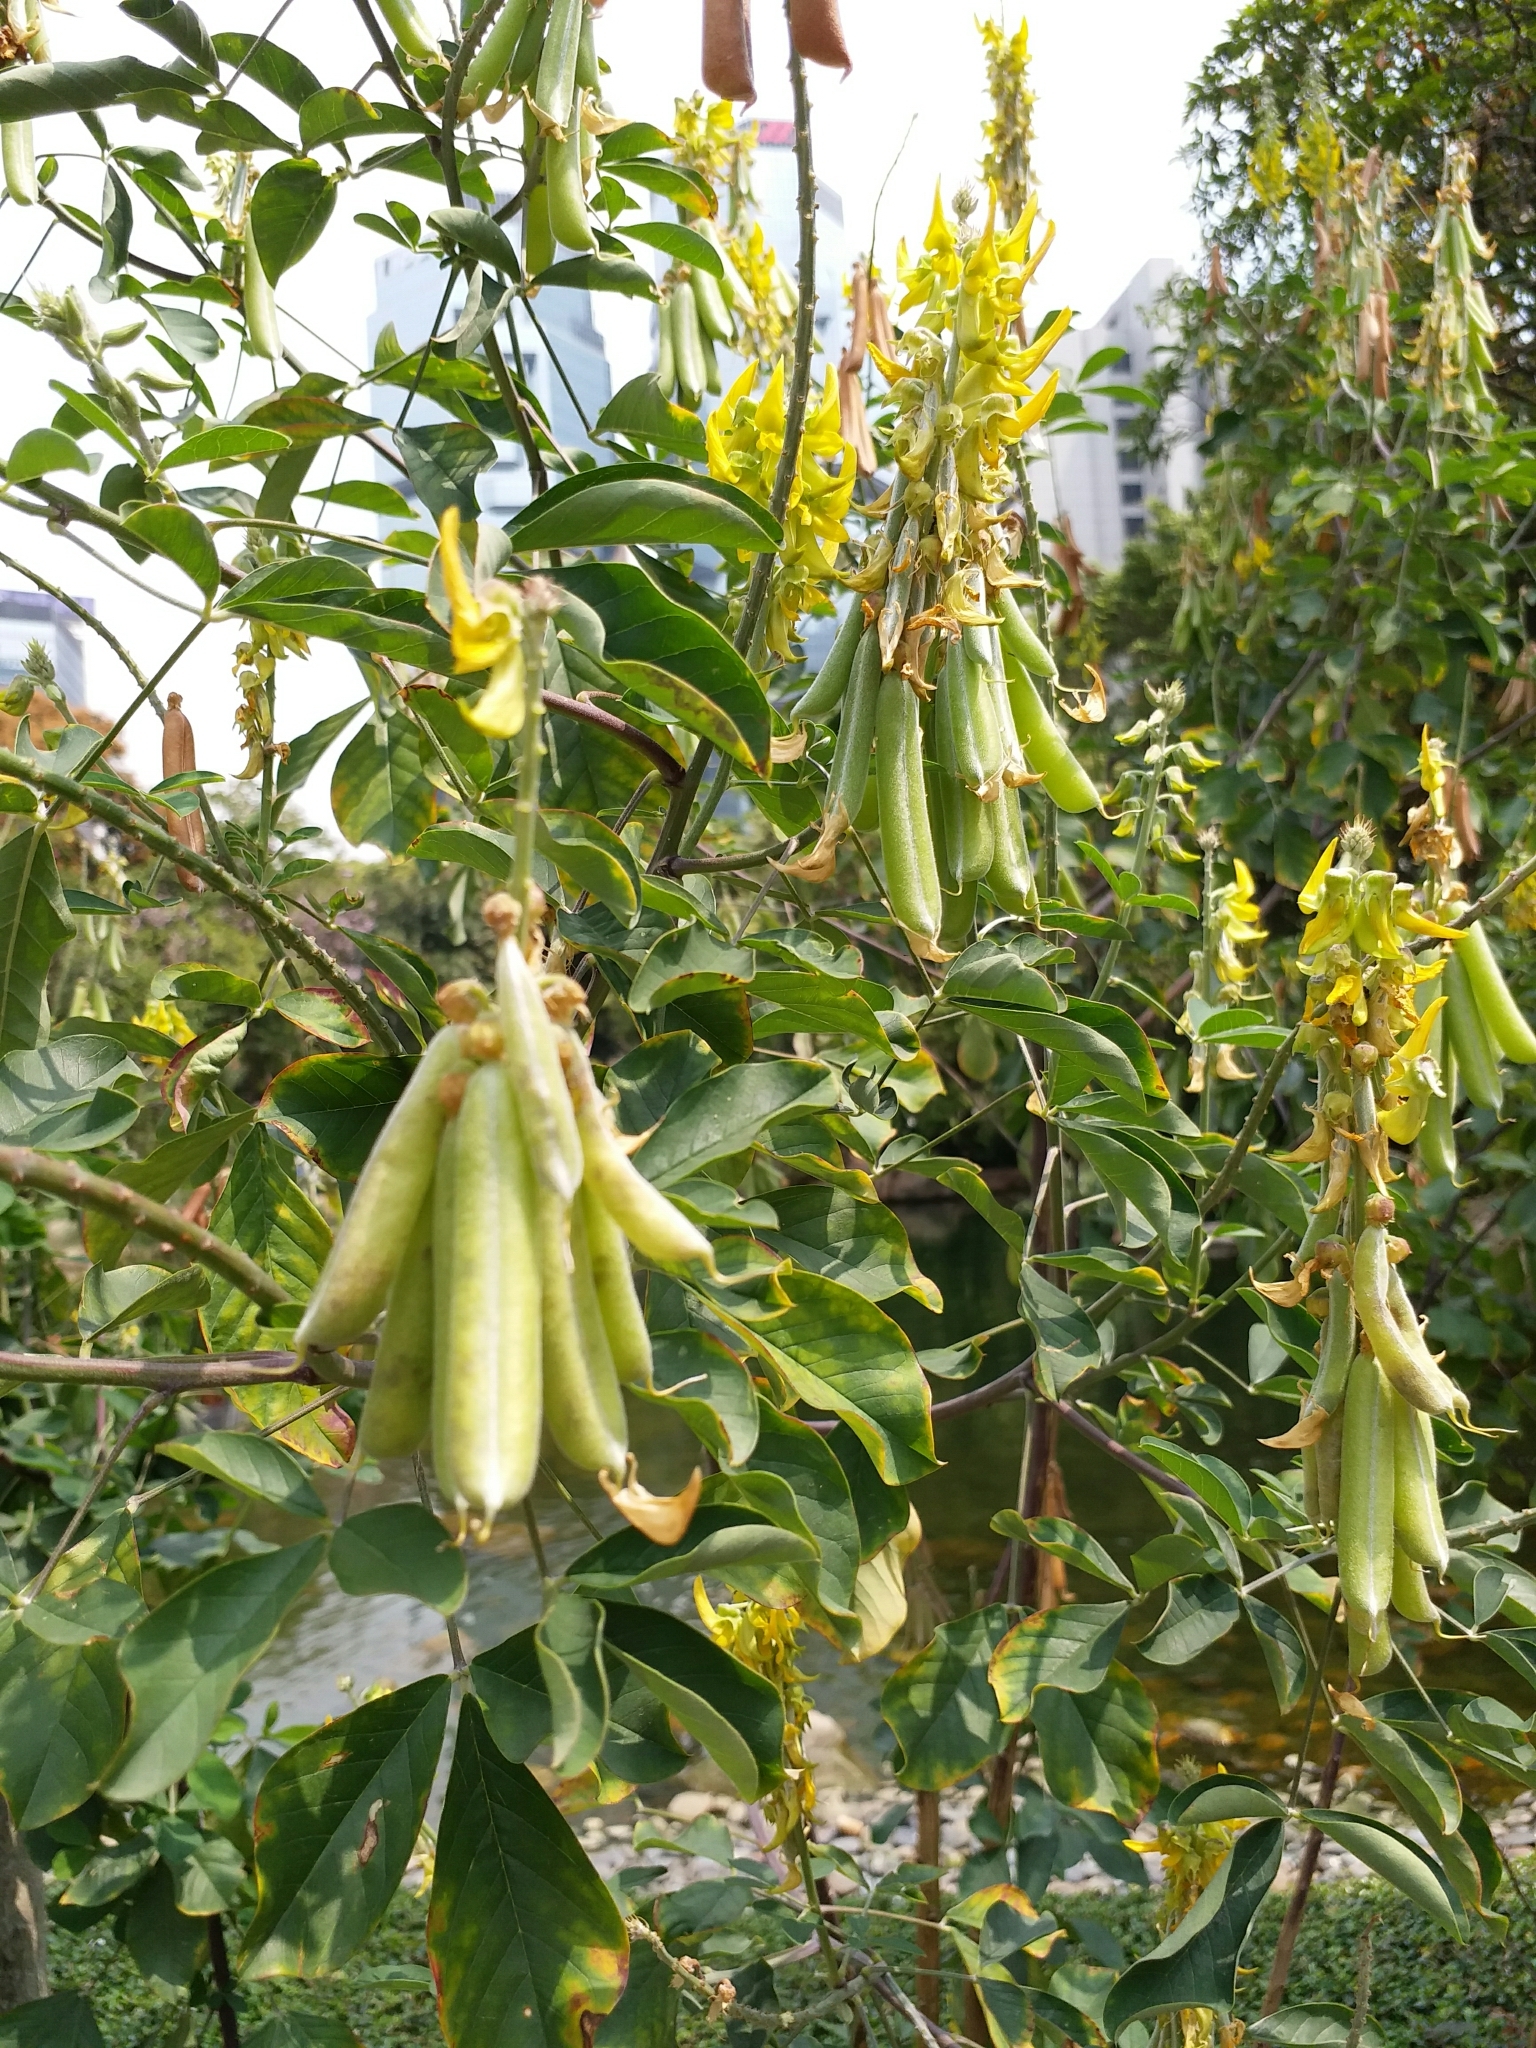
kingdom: Plantae
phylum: Tracheophyta
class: Magnoliopsida
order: Fabales
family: Fabaceae
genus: Crotalaria
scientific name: Crotalaria pallida
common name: Smooth rattlebox
